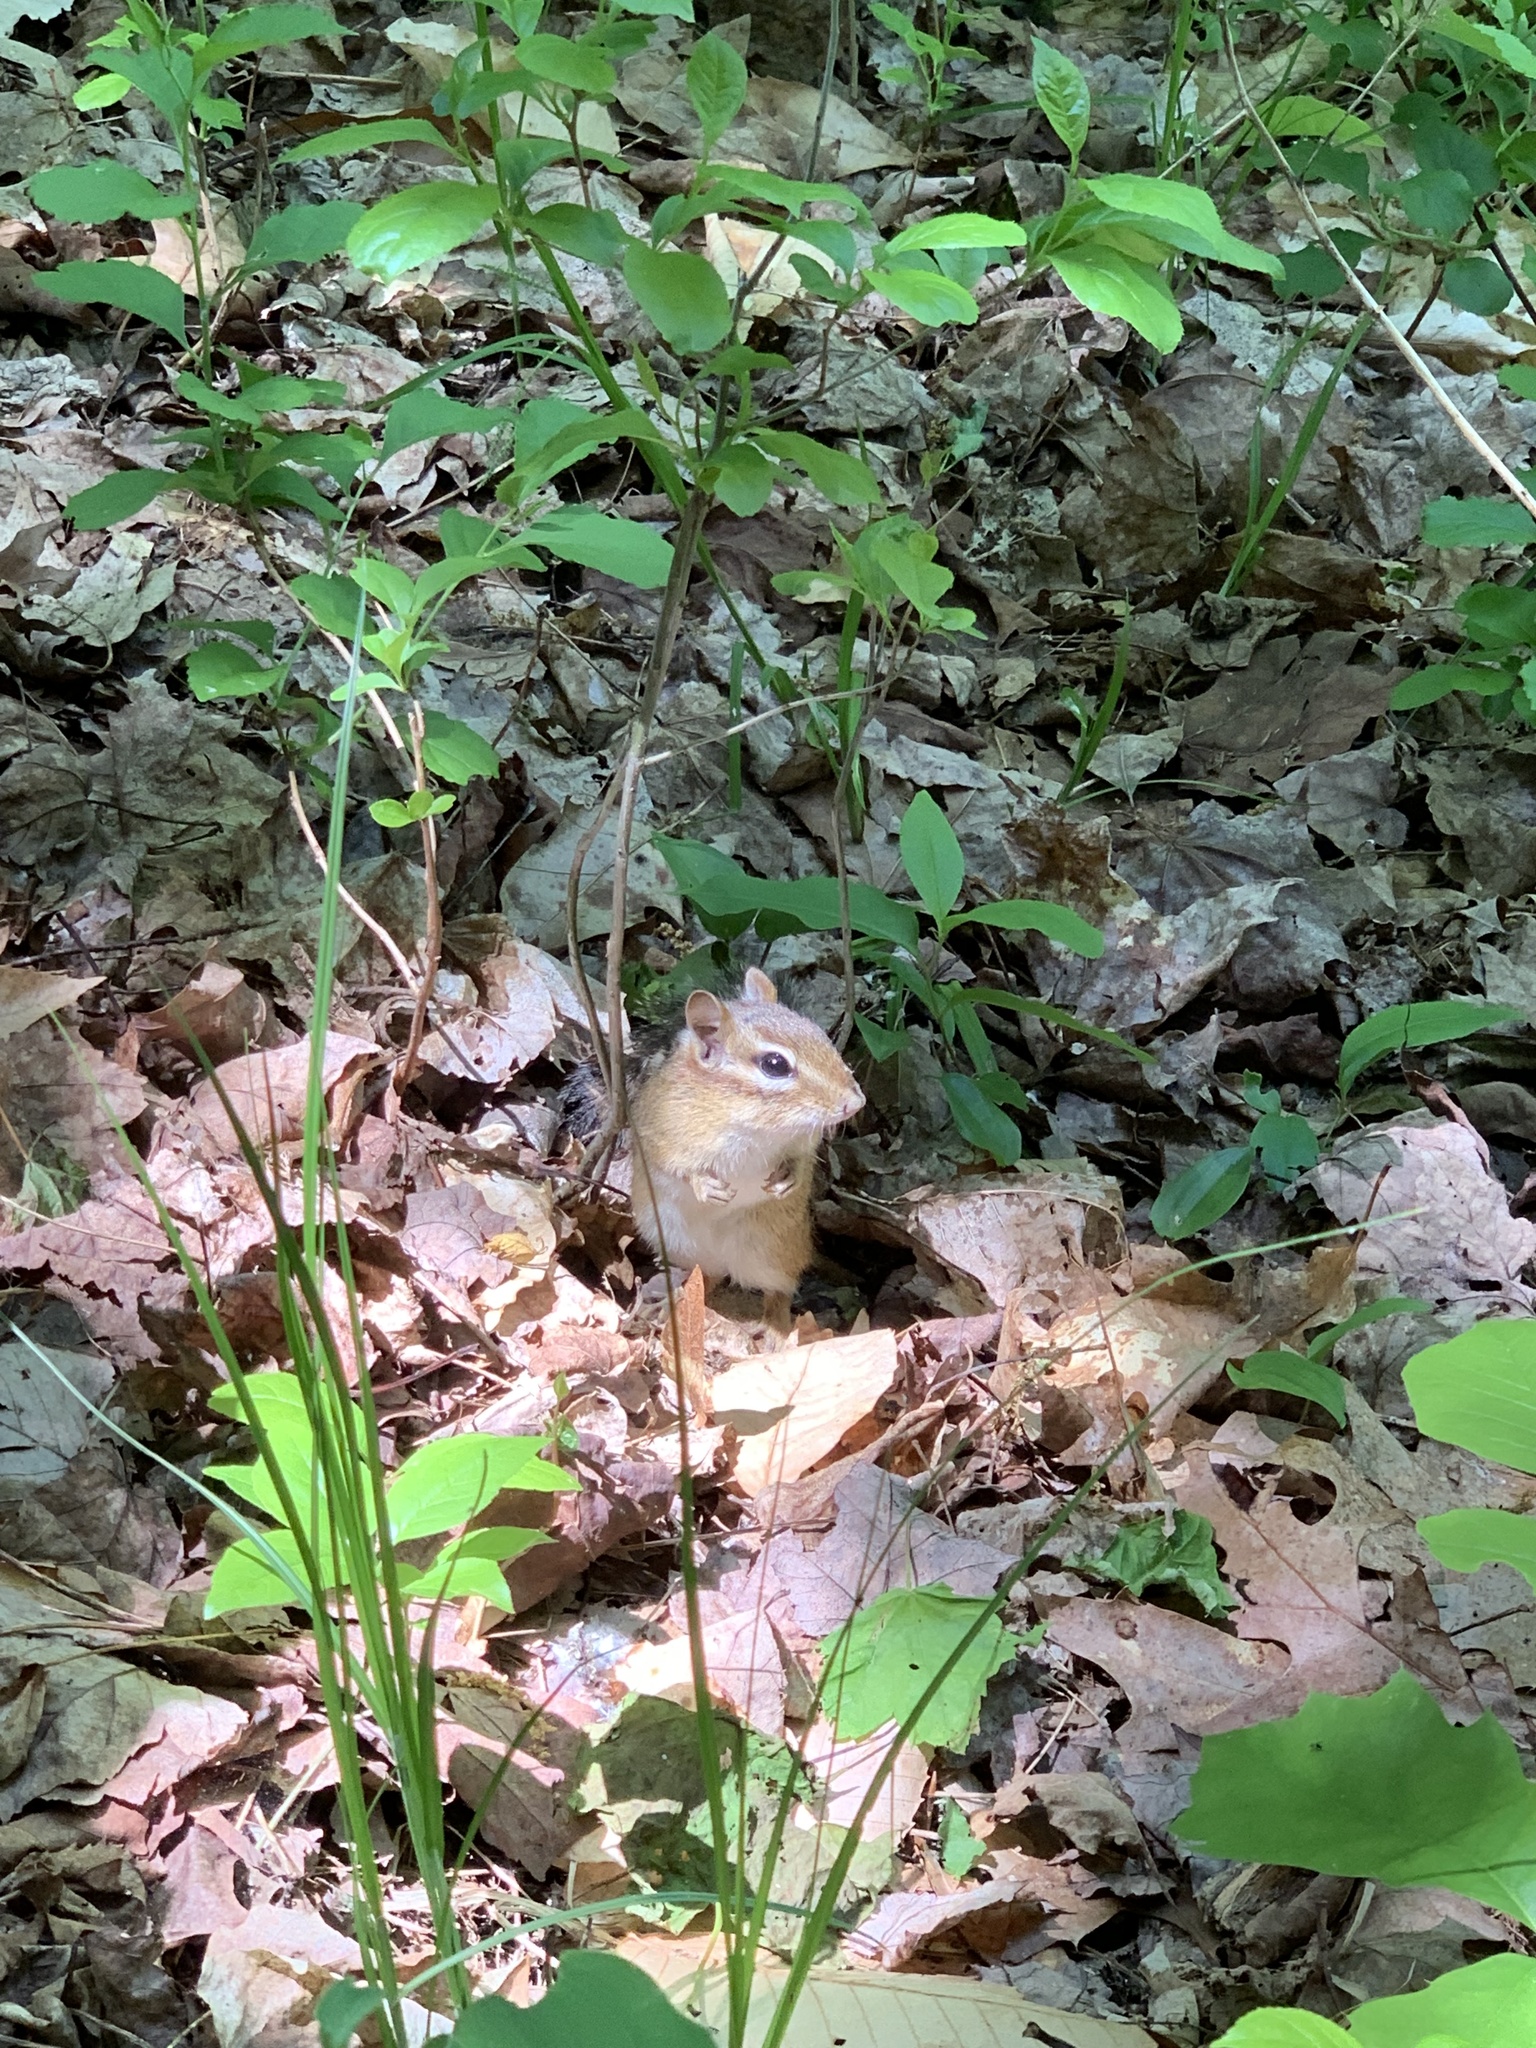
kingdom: Animalia
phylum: Chordata
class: Mammalia
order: Rodentia
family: Sciuridae
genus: Tamias
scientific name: Tamias striatus
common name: Eastern chipmunk
